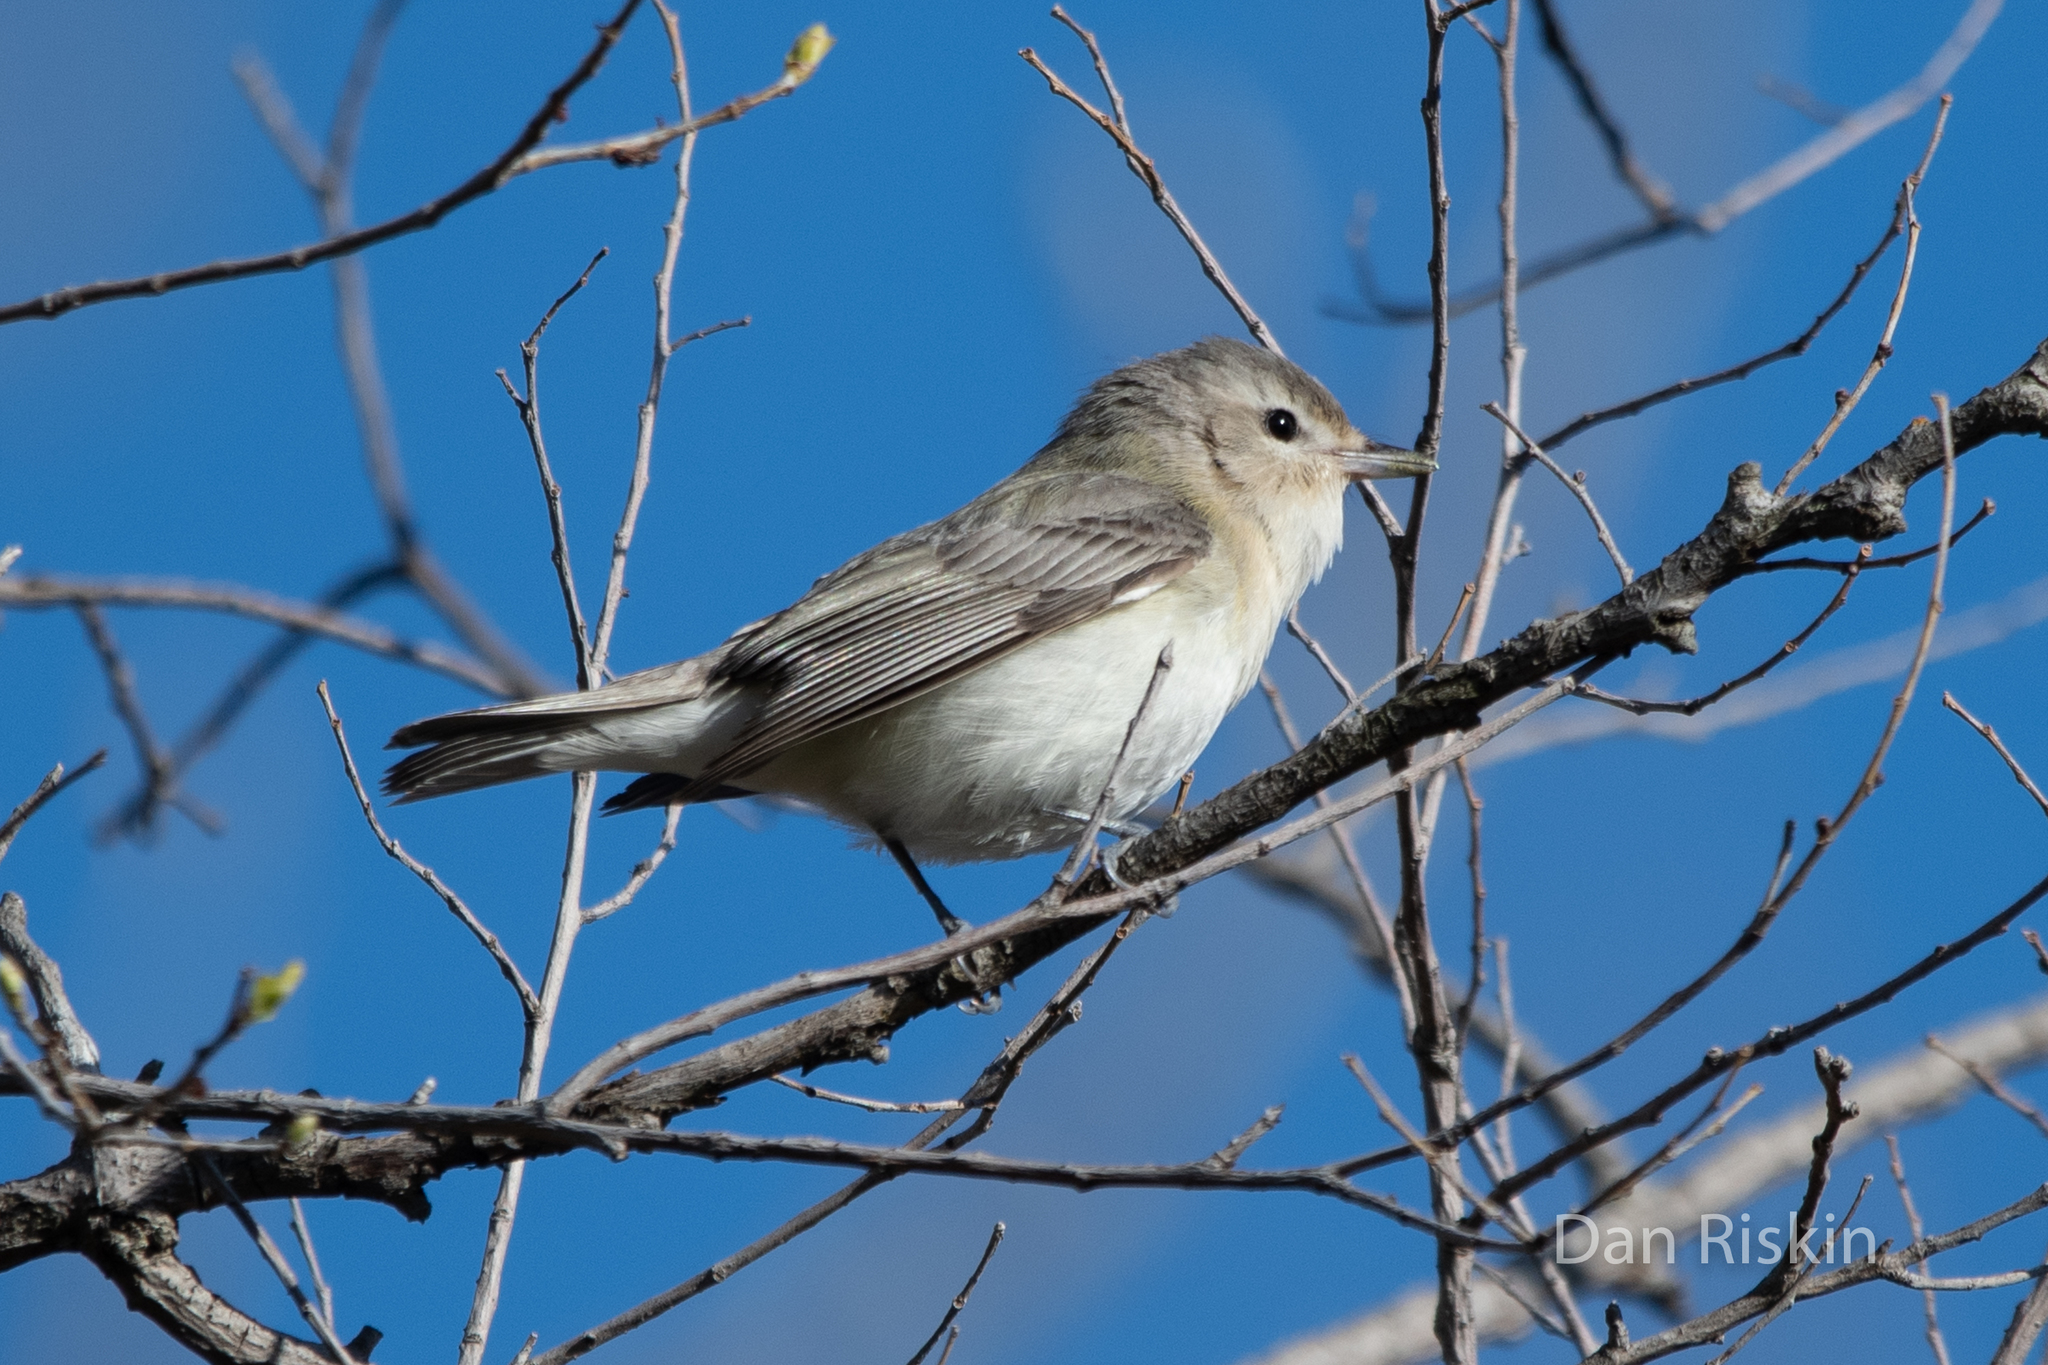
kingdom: Animalia
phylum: Chordata
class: Aves
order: Passeriformes
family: Vireonidae
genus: Vireo
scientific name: Vireo gilvus
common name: Warbling vireo
